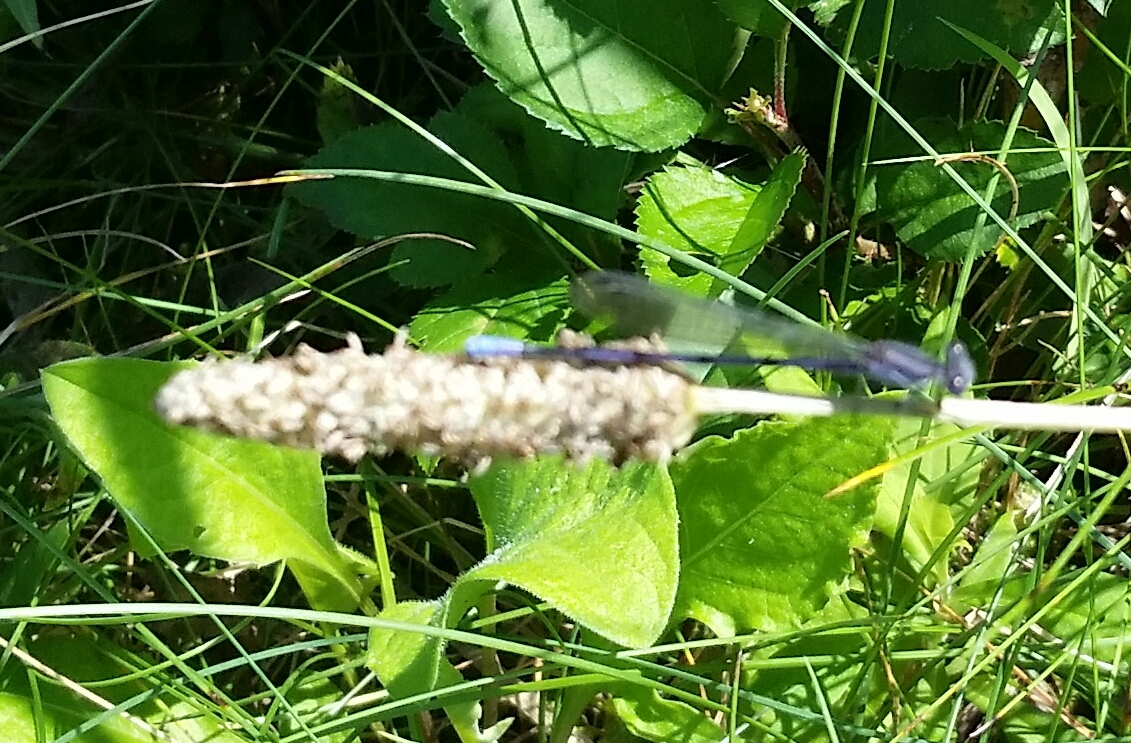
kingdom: Animalia
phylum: Arthropoda
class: Insecta
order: Odonata
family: Coenagrionidae
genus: Argia
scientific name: Argia fumipennis
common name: Variable dancer
